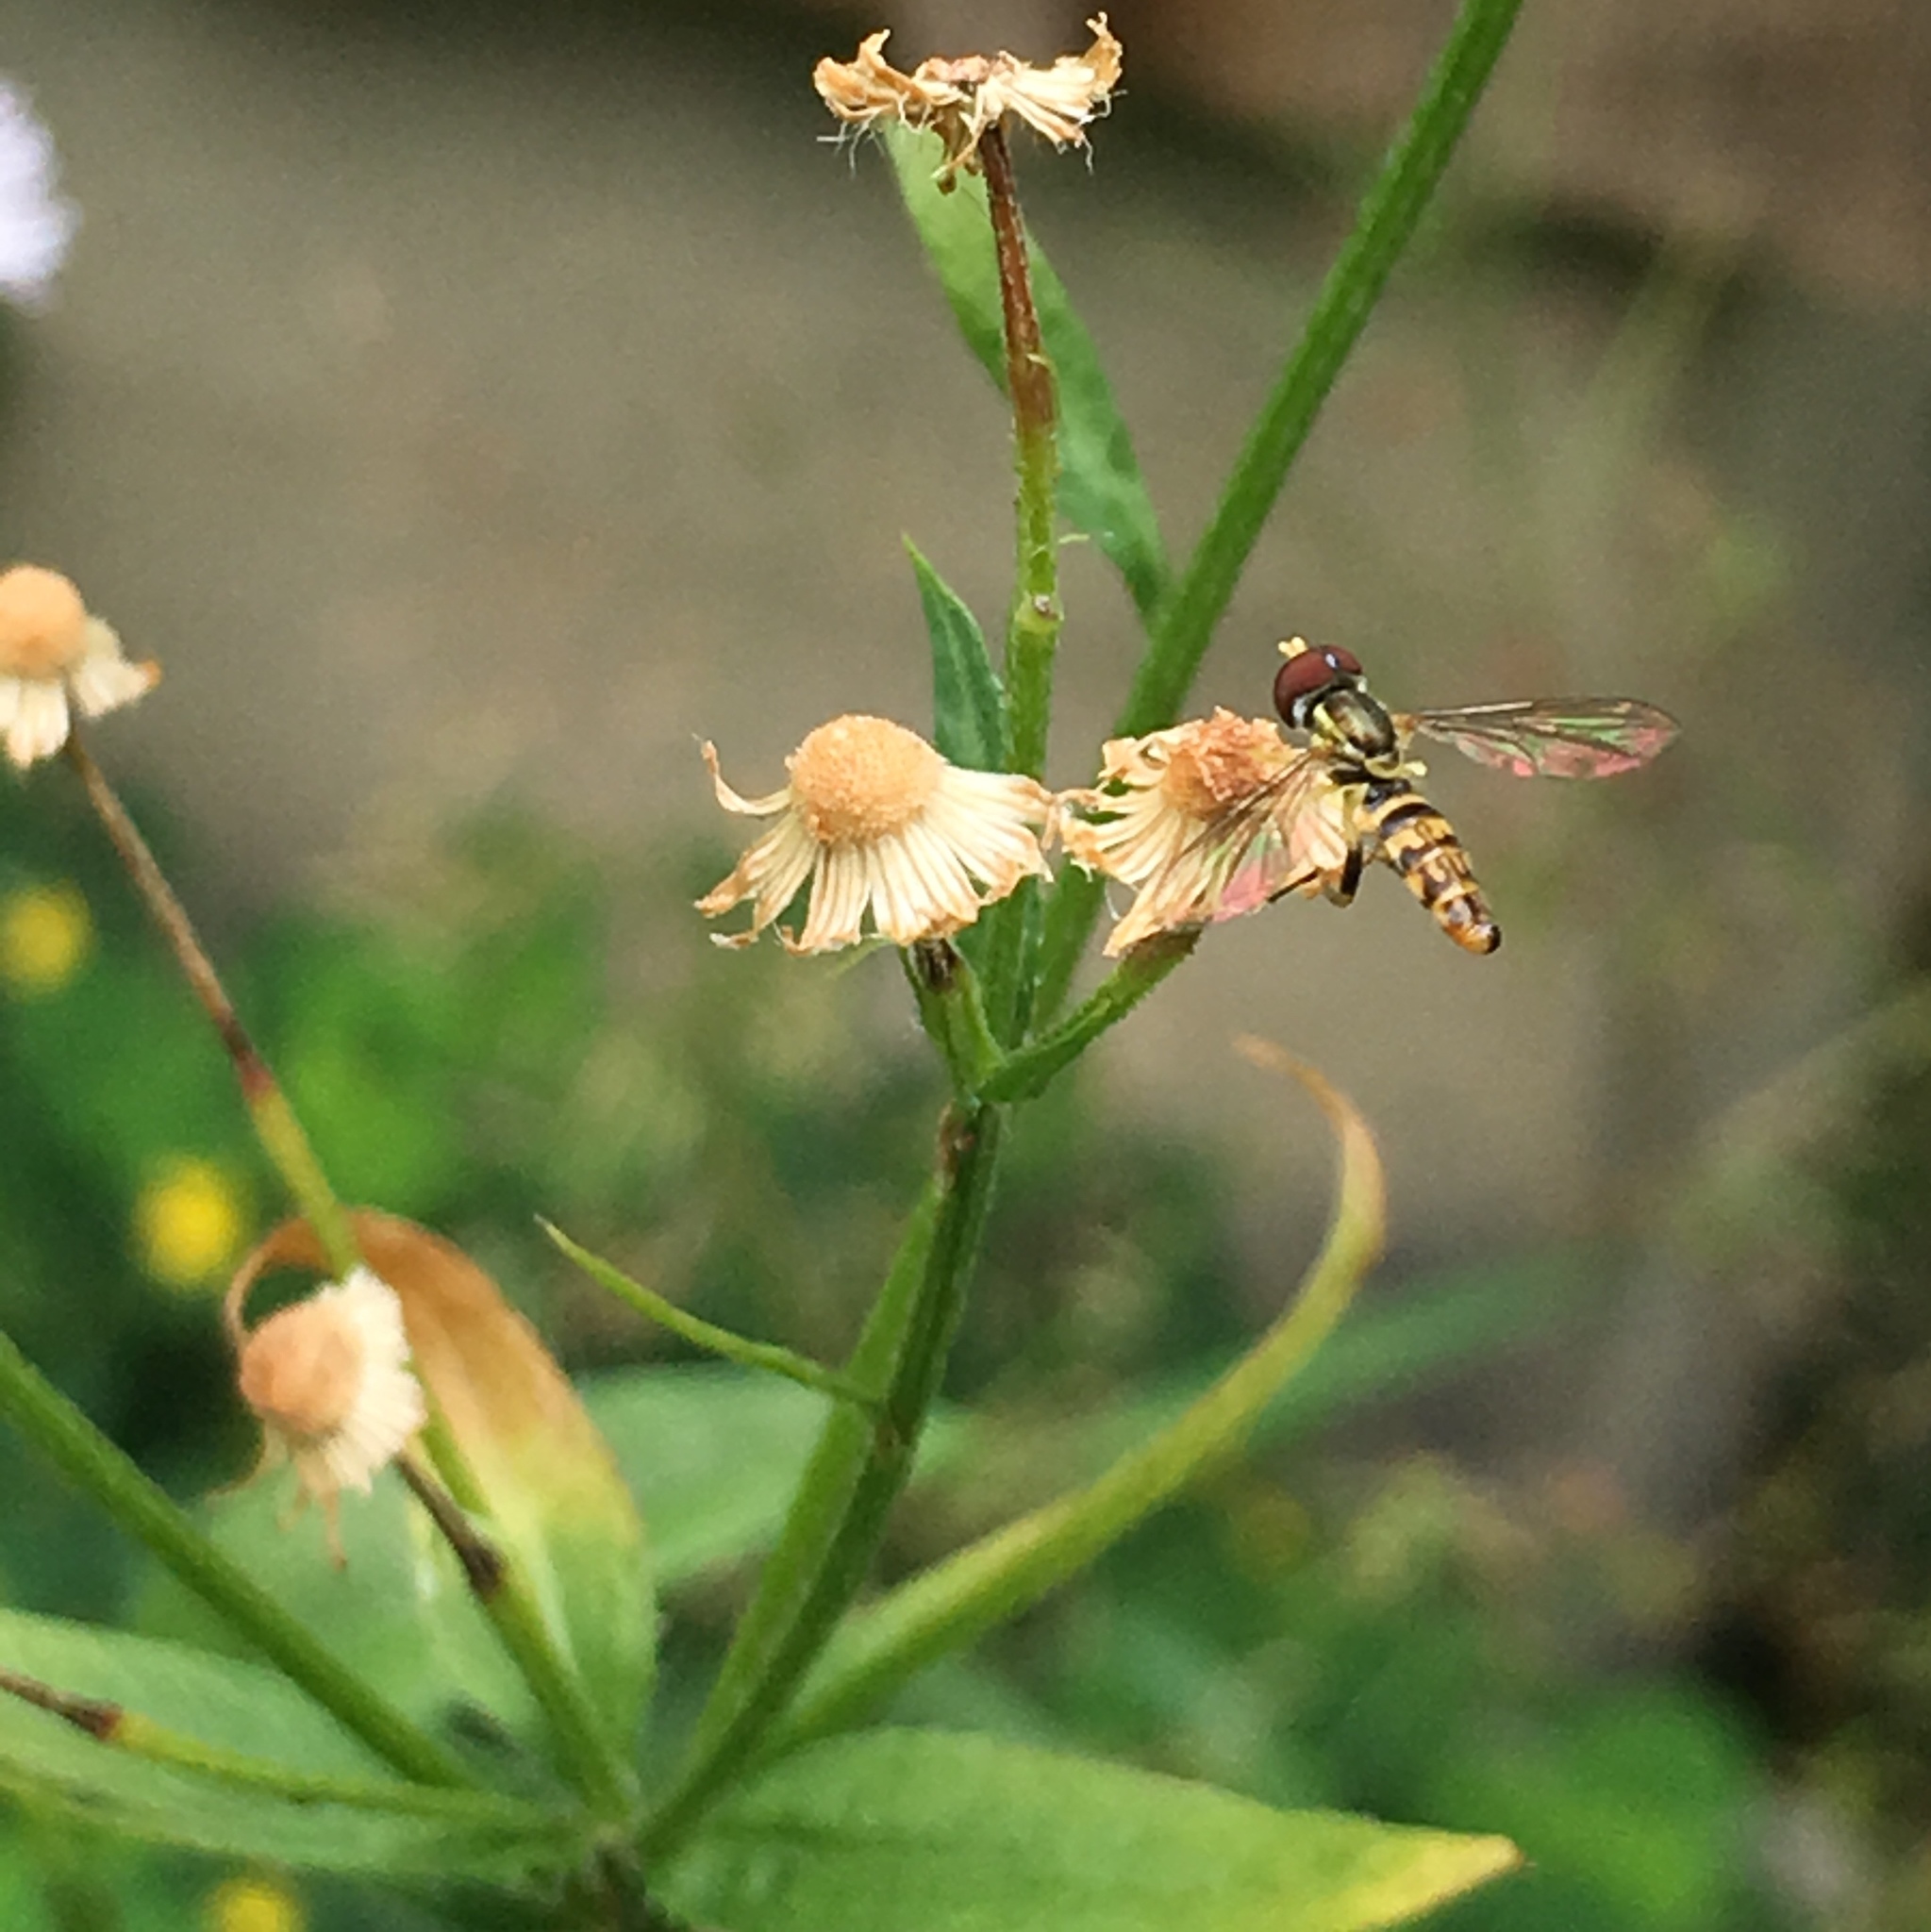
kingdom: Animalia
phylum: Arthropoda
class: Insecta
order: Diptera
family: Syrphidae
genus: Toxomerus
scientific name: Toxomerus geminatus
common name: Eastern calligrapher
